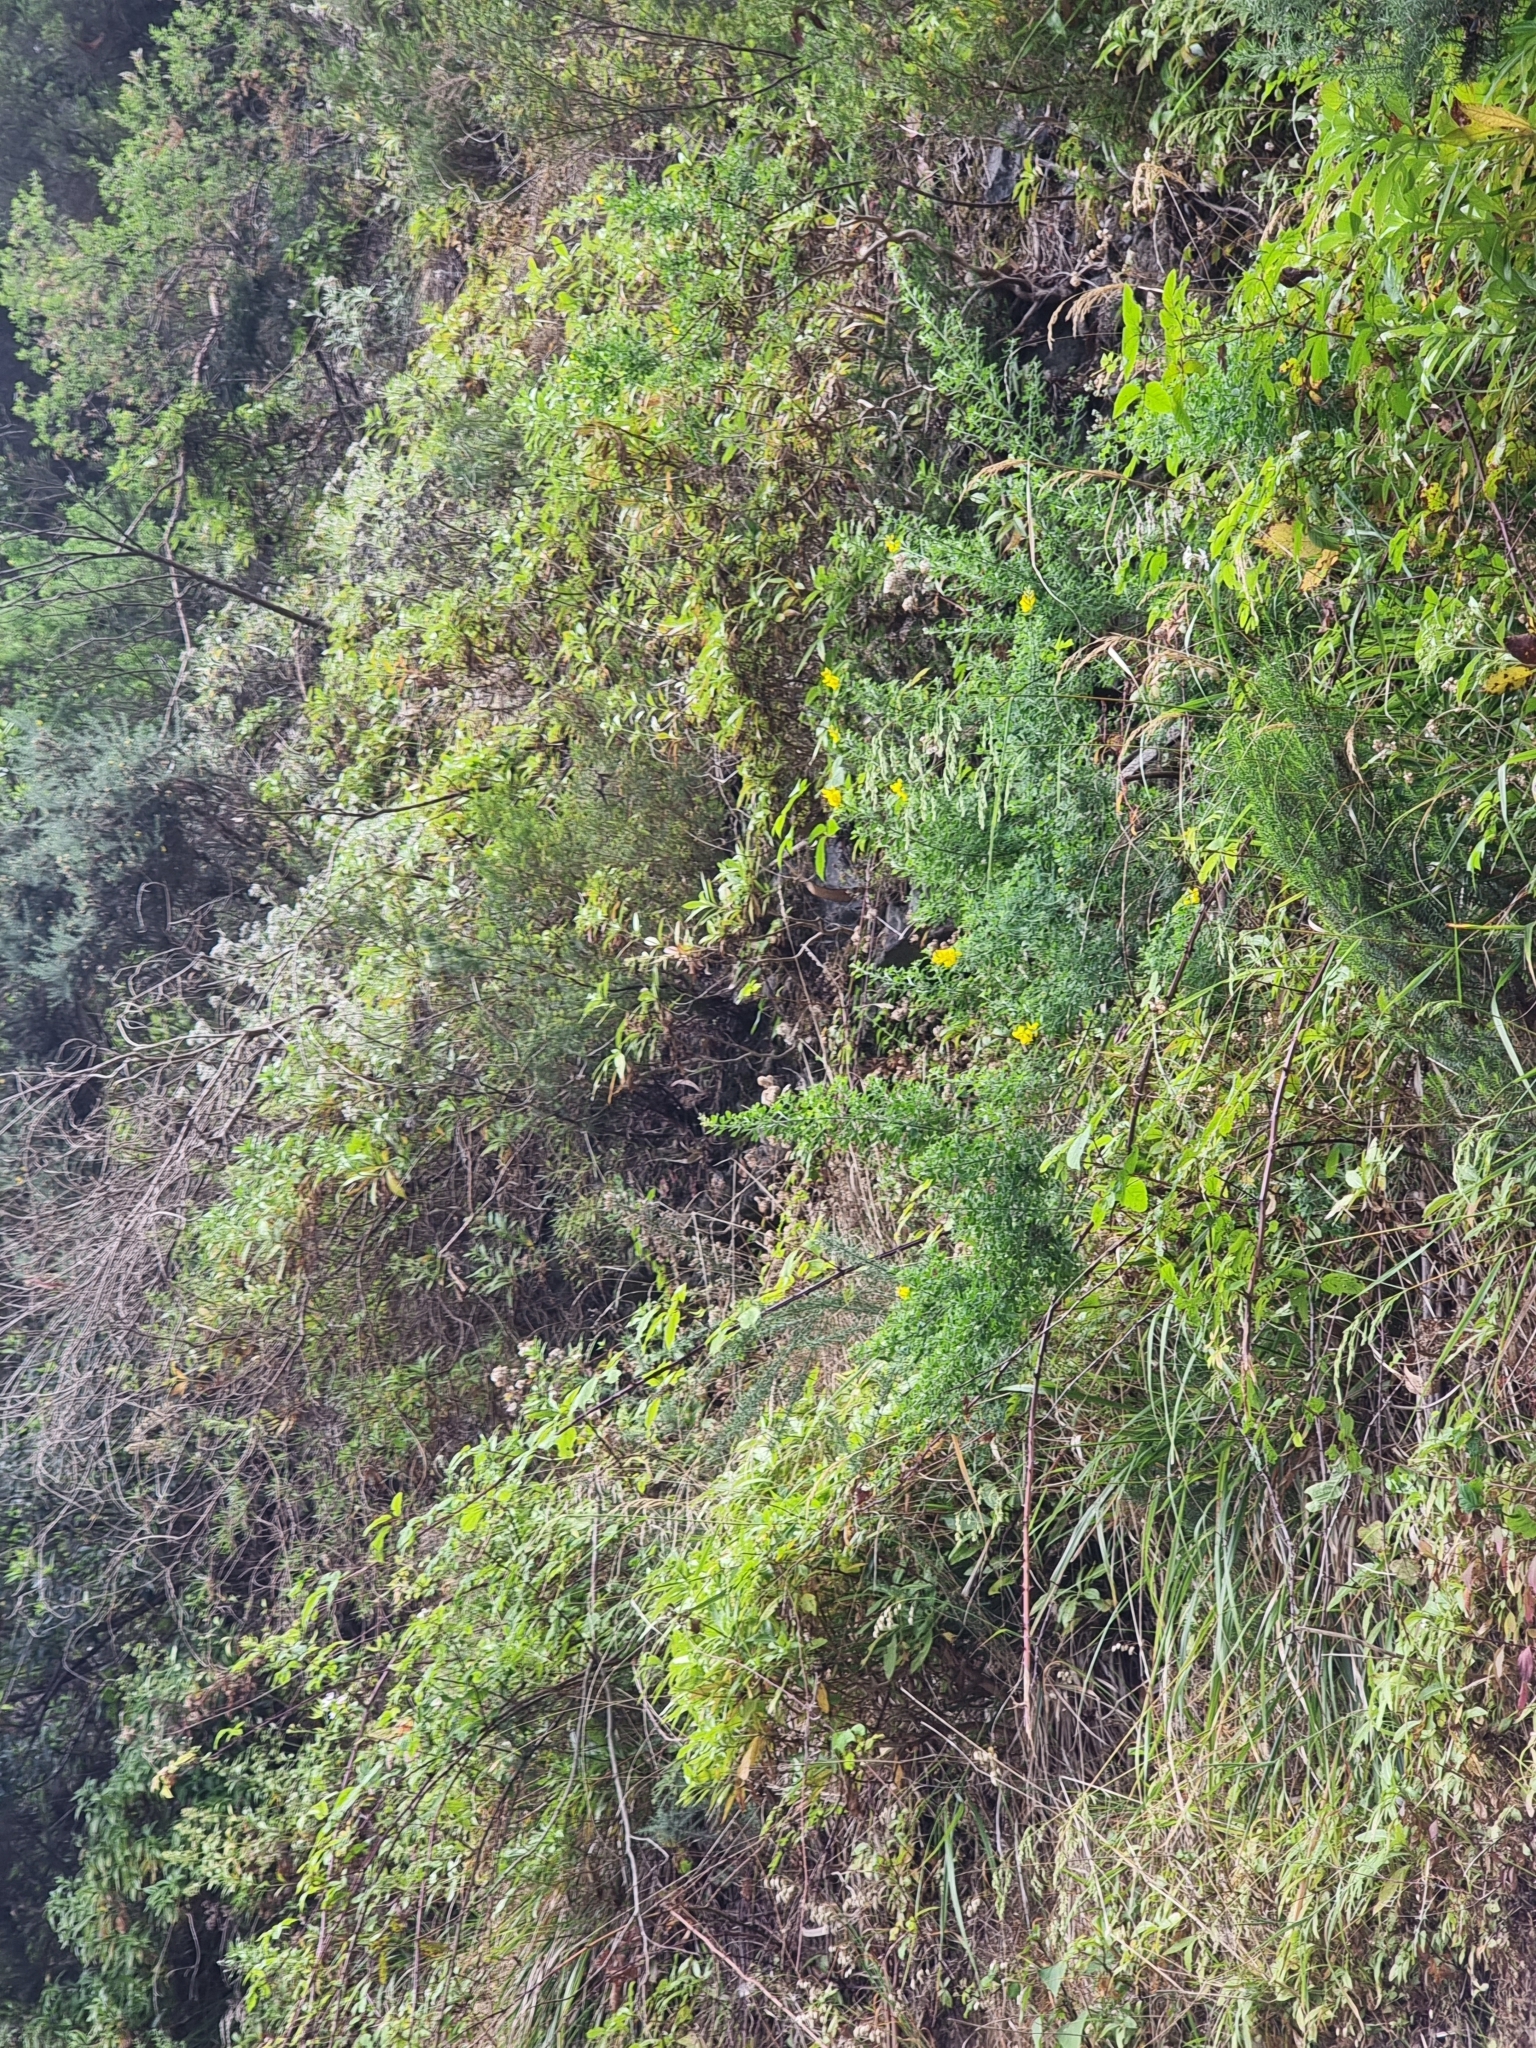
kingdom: Plantae
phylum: Tracheophyta
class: Magnoliopsida
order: Fabales
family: Fabaceae
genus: Genista
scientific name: Genista maderensis
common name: Madeira dyer's greenweed
